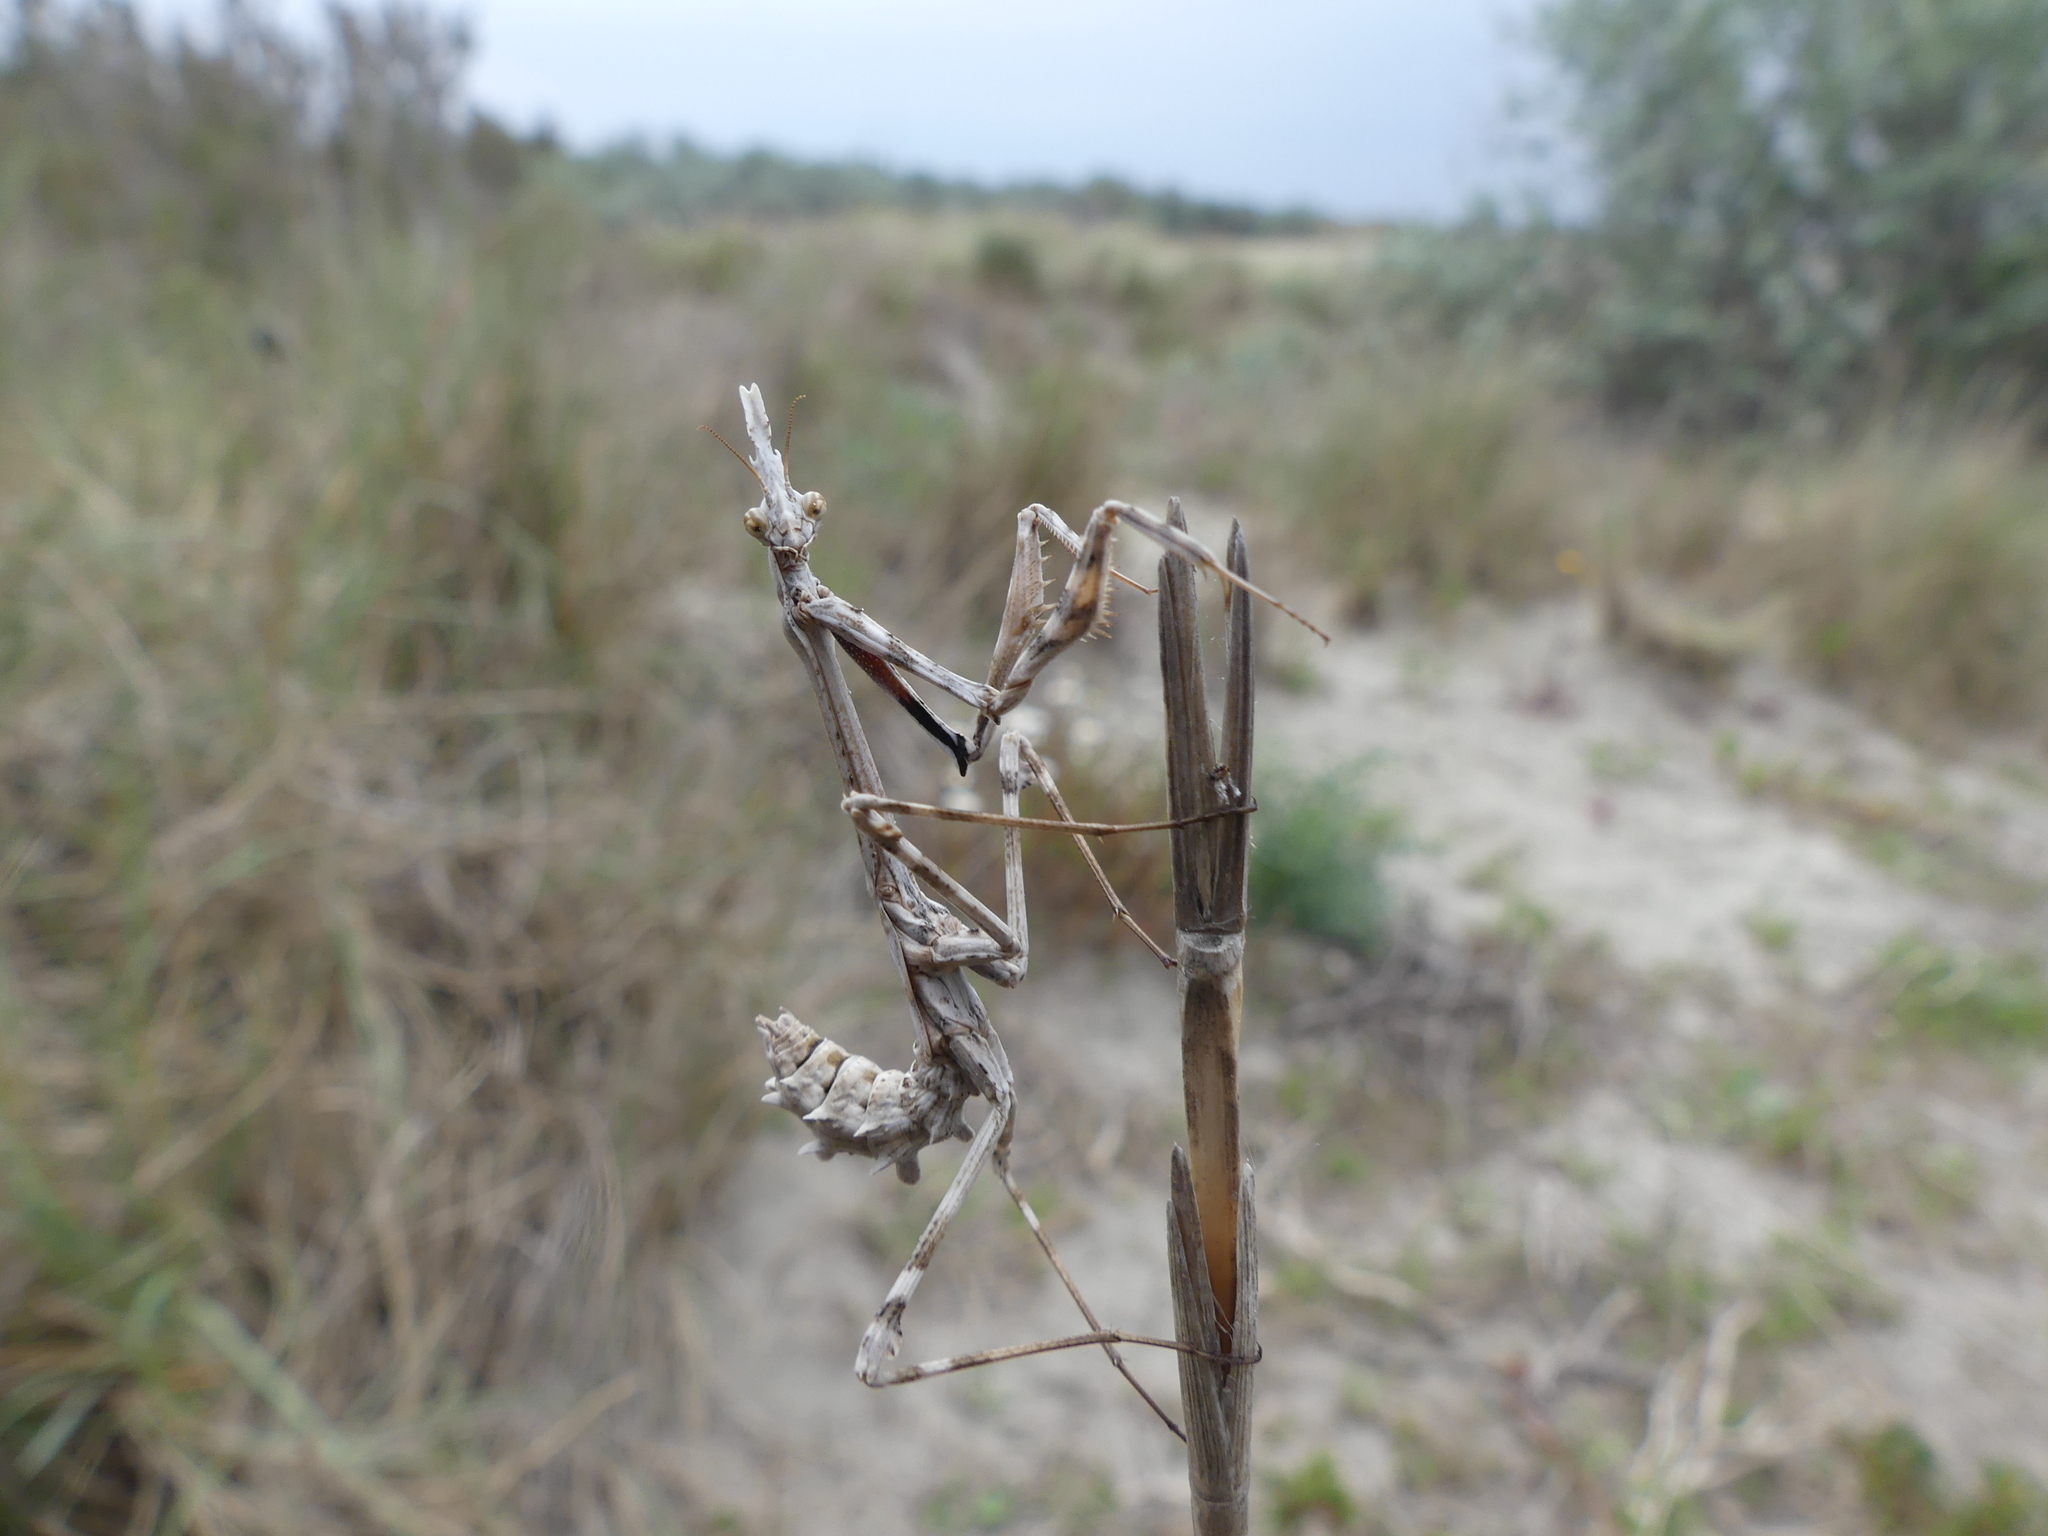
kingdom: Animalia
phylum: Arthropoda
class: Insecta
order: Mantodea
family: Empusidae
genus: Empusa
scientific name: Empusa pennata
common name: Conehead mantis
